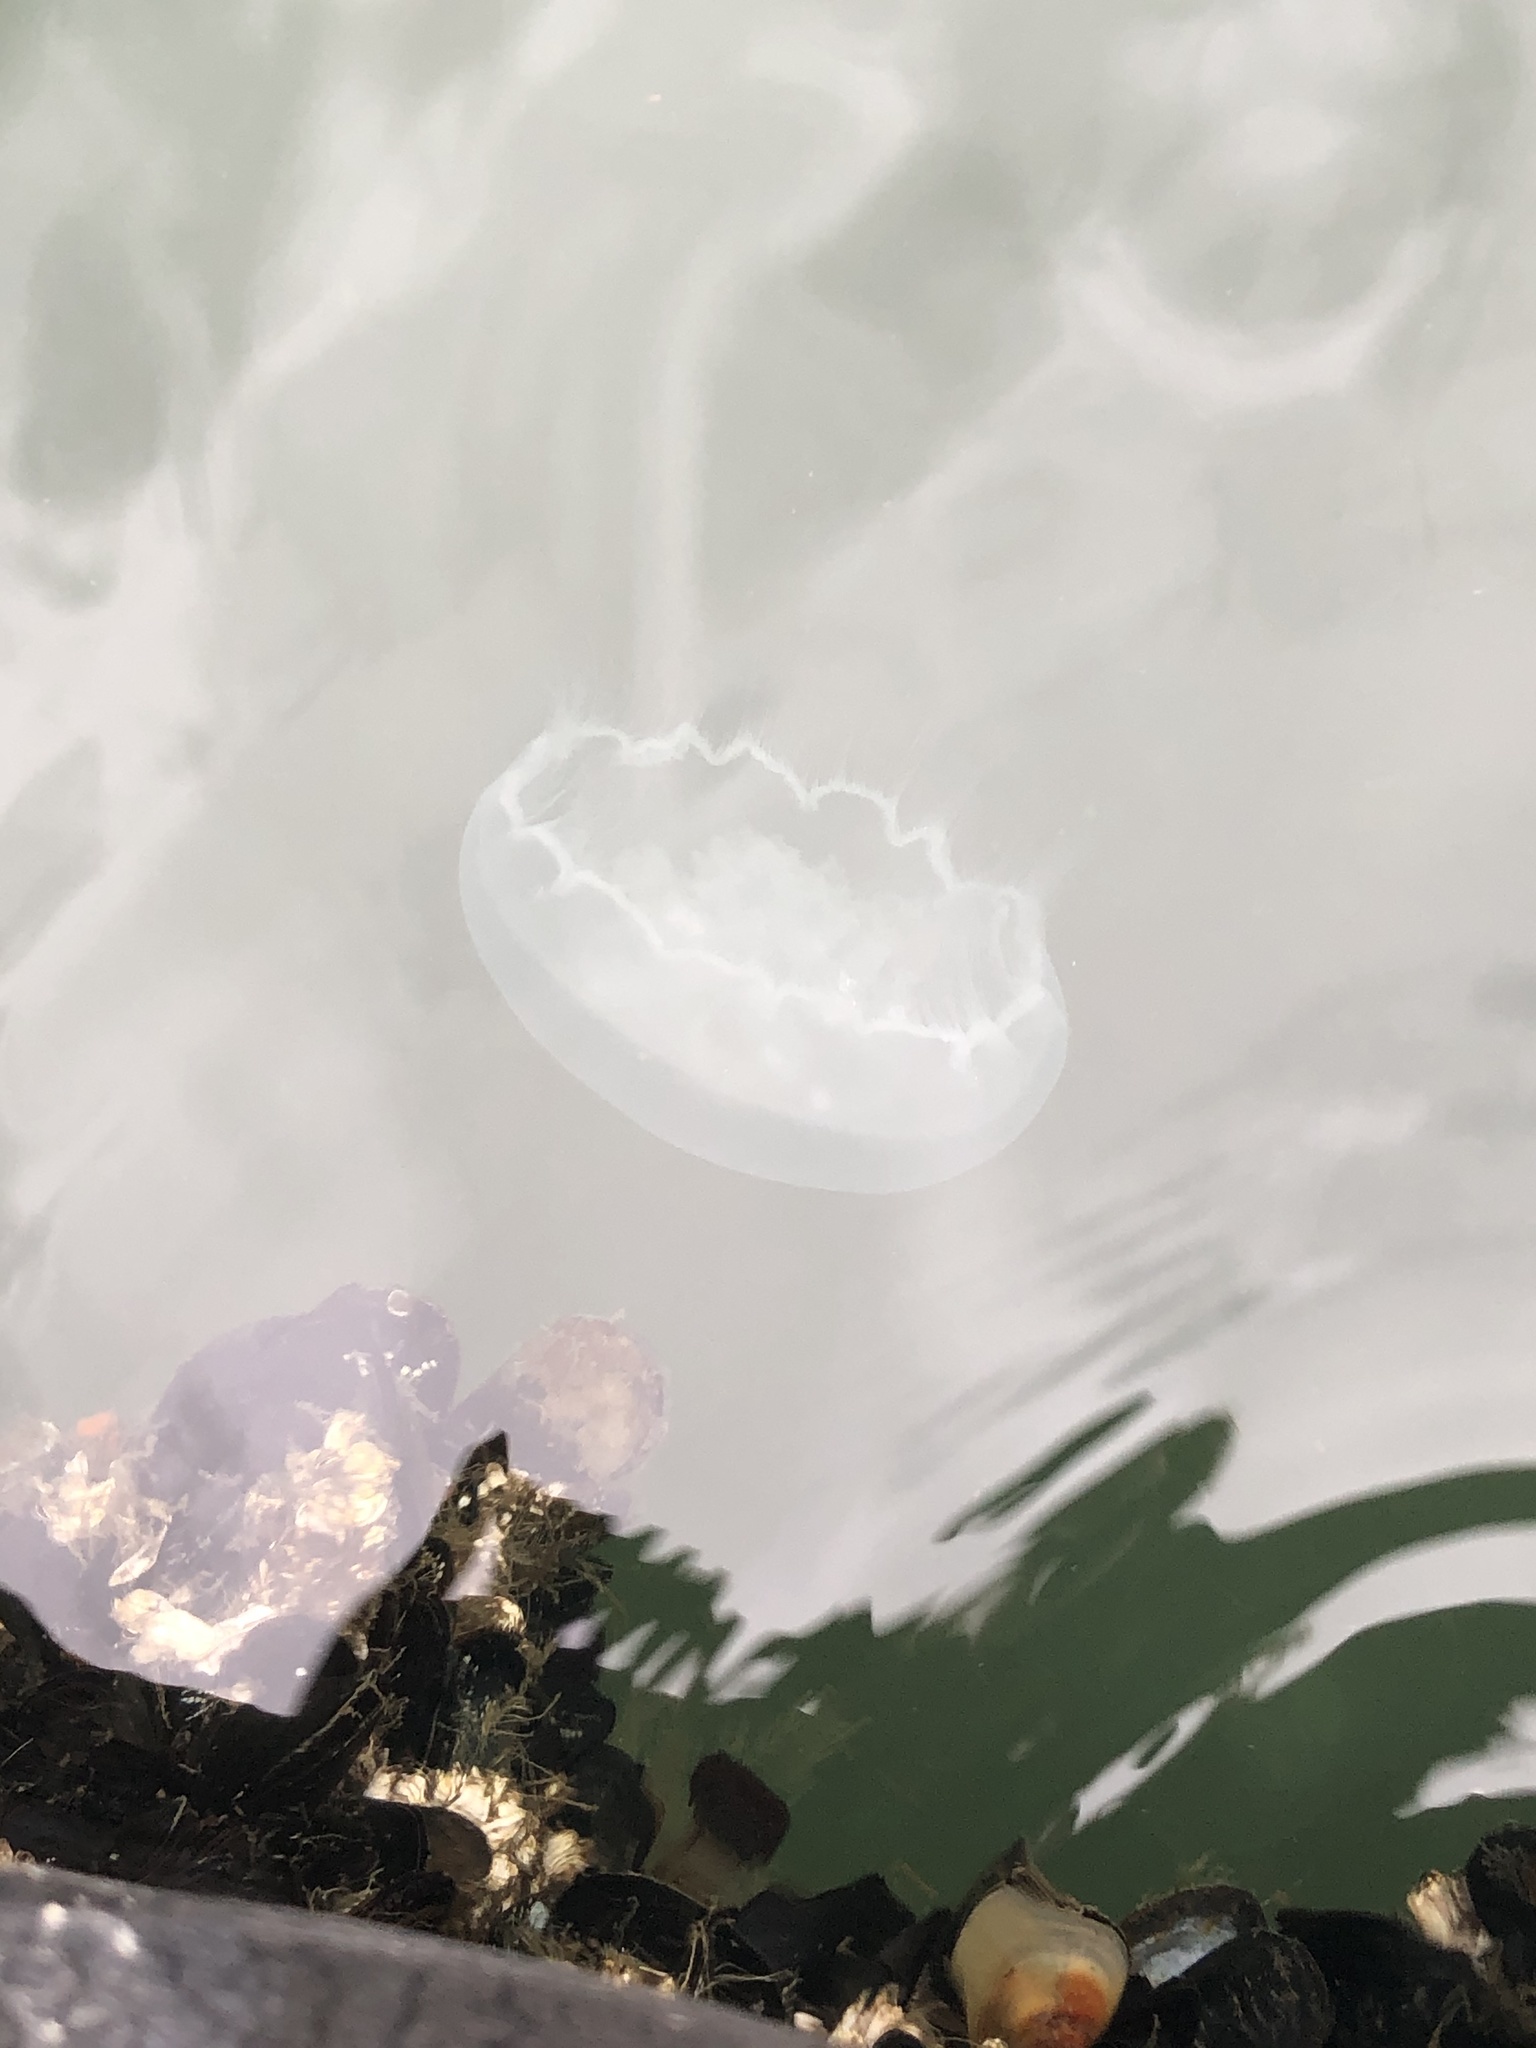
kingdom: Animalia
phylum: Cnidaria
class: Scyphozoa
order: Semaeostomeae
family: Ulmaridae
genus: Aurelia
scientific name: Aurelia labiata
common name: Pacific moon jelly
